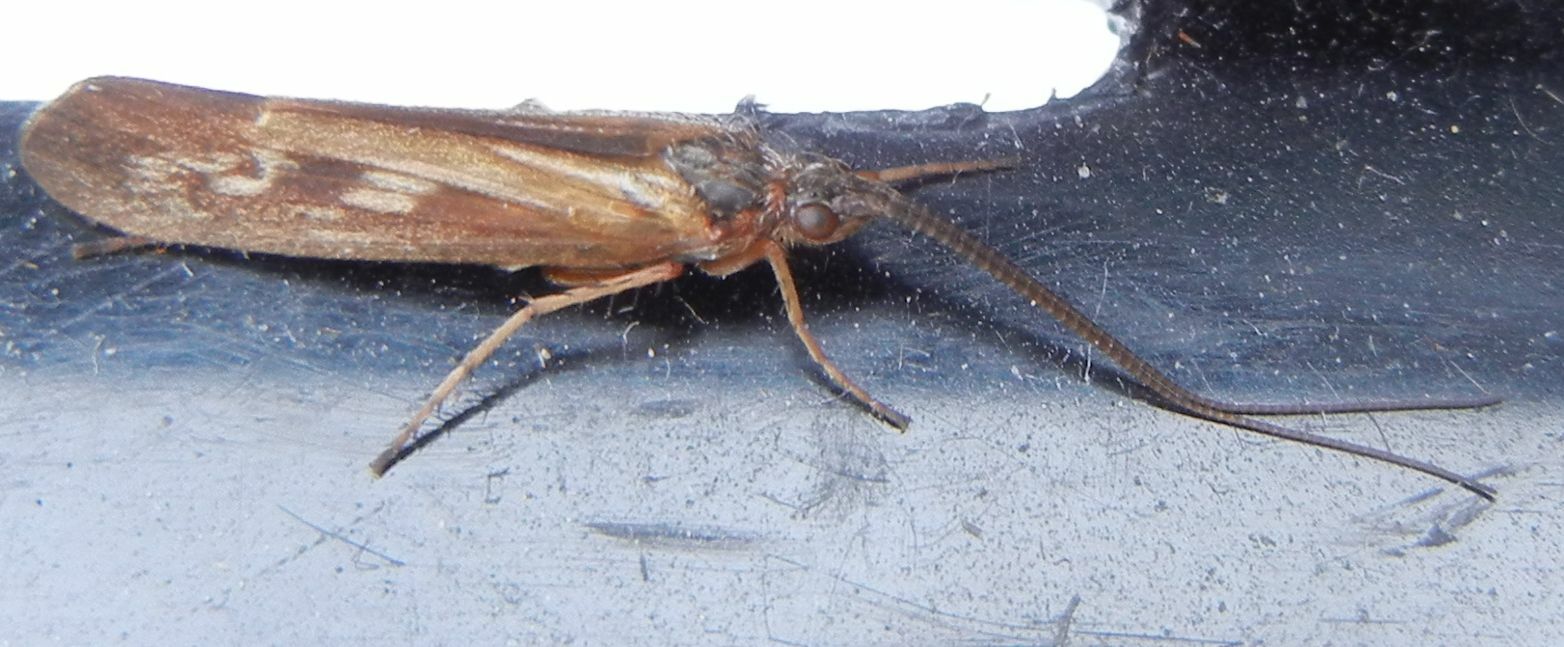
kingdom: Animalia
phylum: Arthropoda
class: Insecta
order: Trichoptera
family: Limnephilidae
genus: Limnephilus
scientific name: Limnephilus auricula
